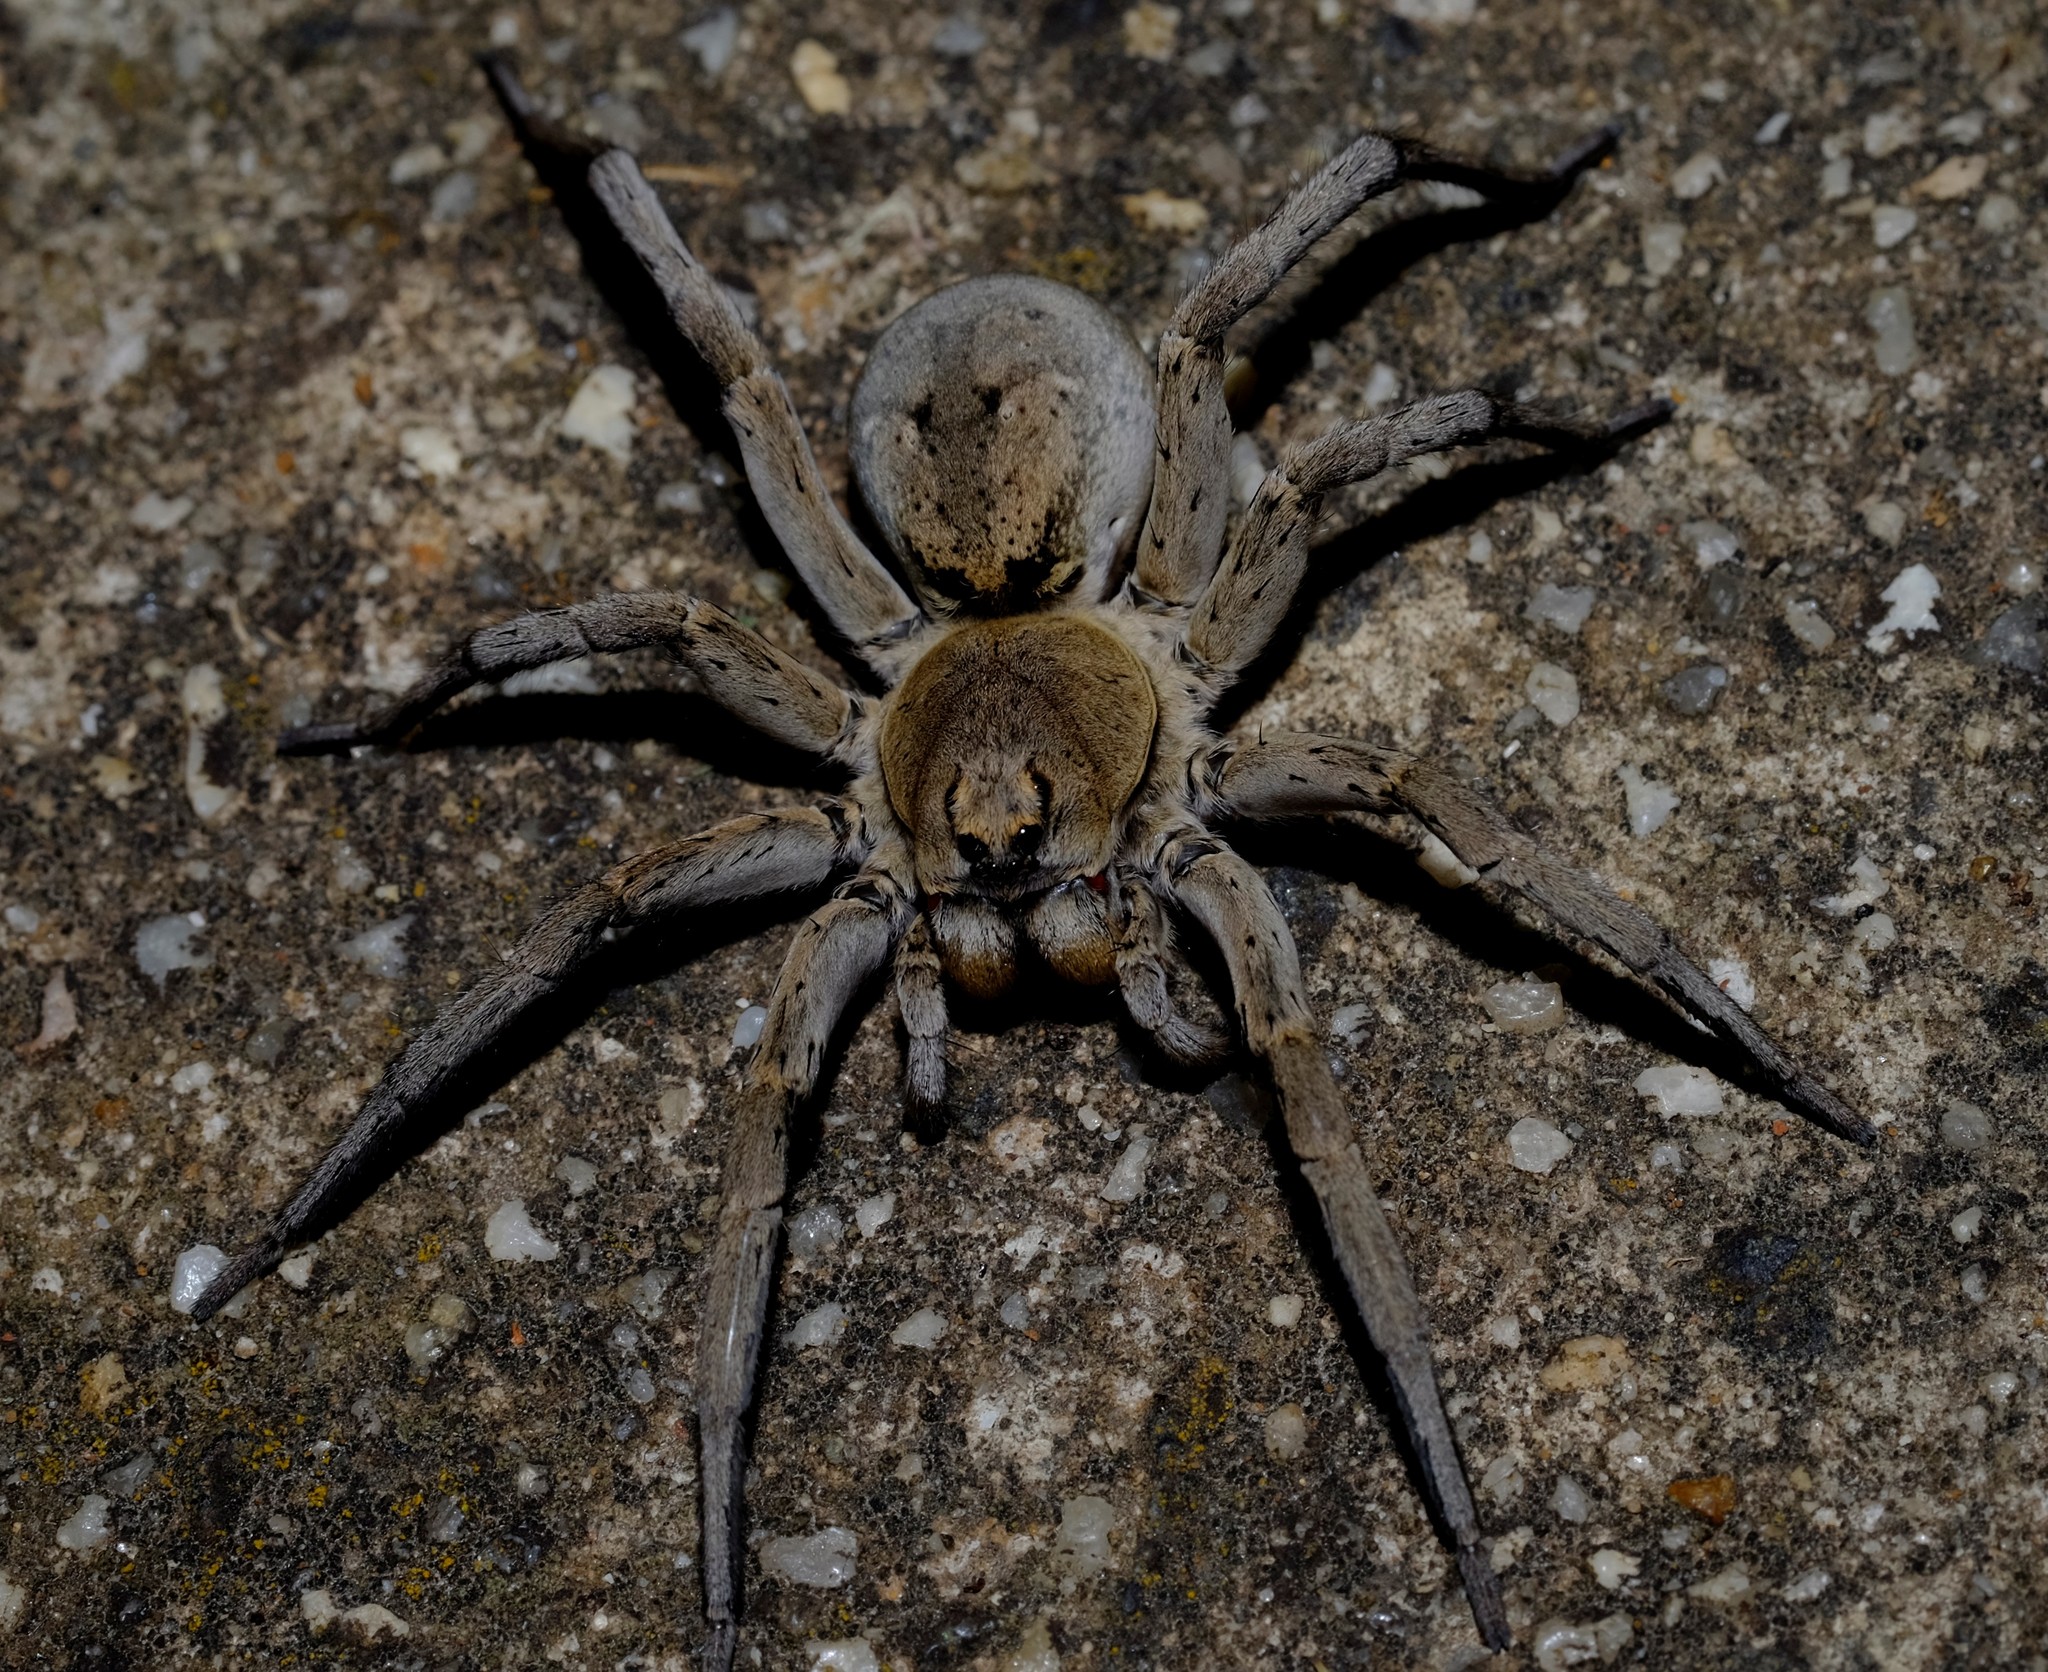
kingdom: Animalia
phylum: Arthropoda
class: Arachnida
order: Araneae
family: Lycosidae
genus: Portacosa
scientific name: Portacosa cinerea
